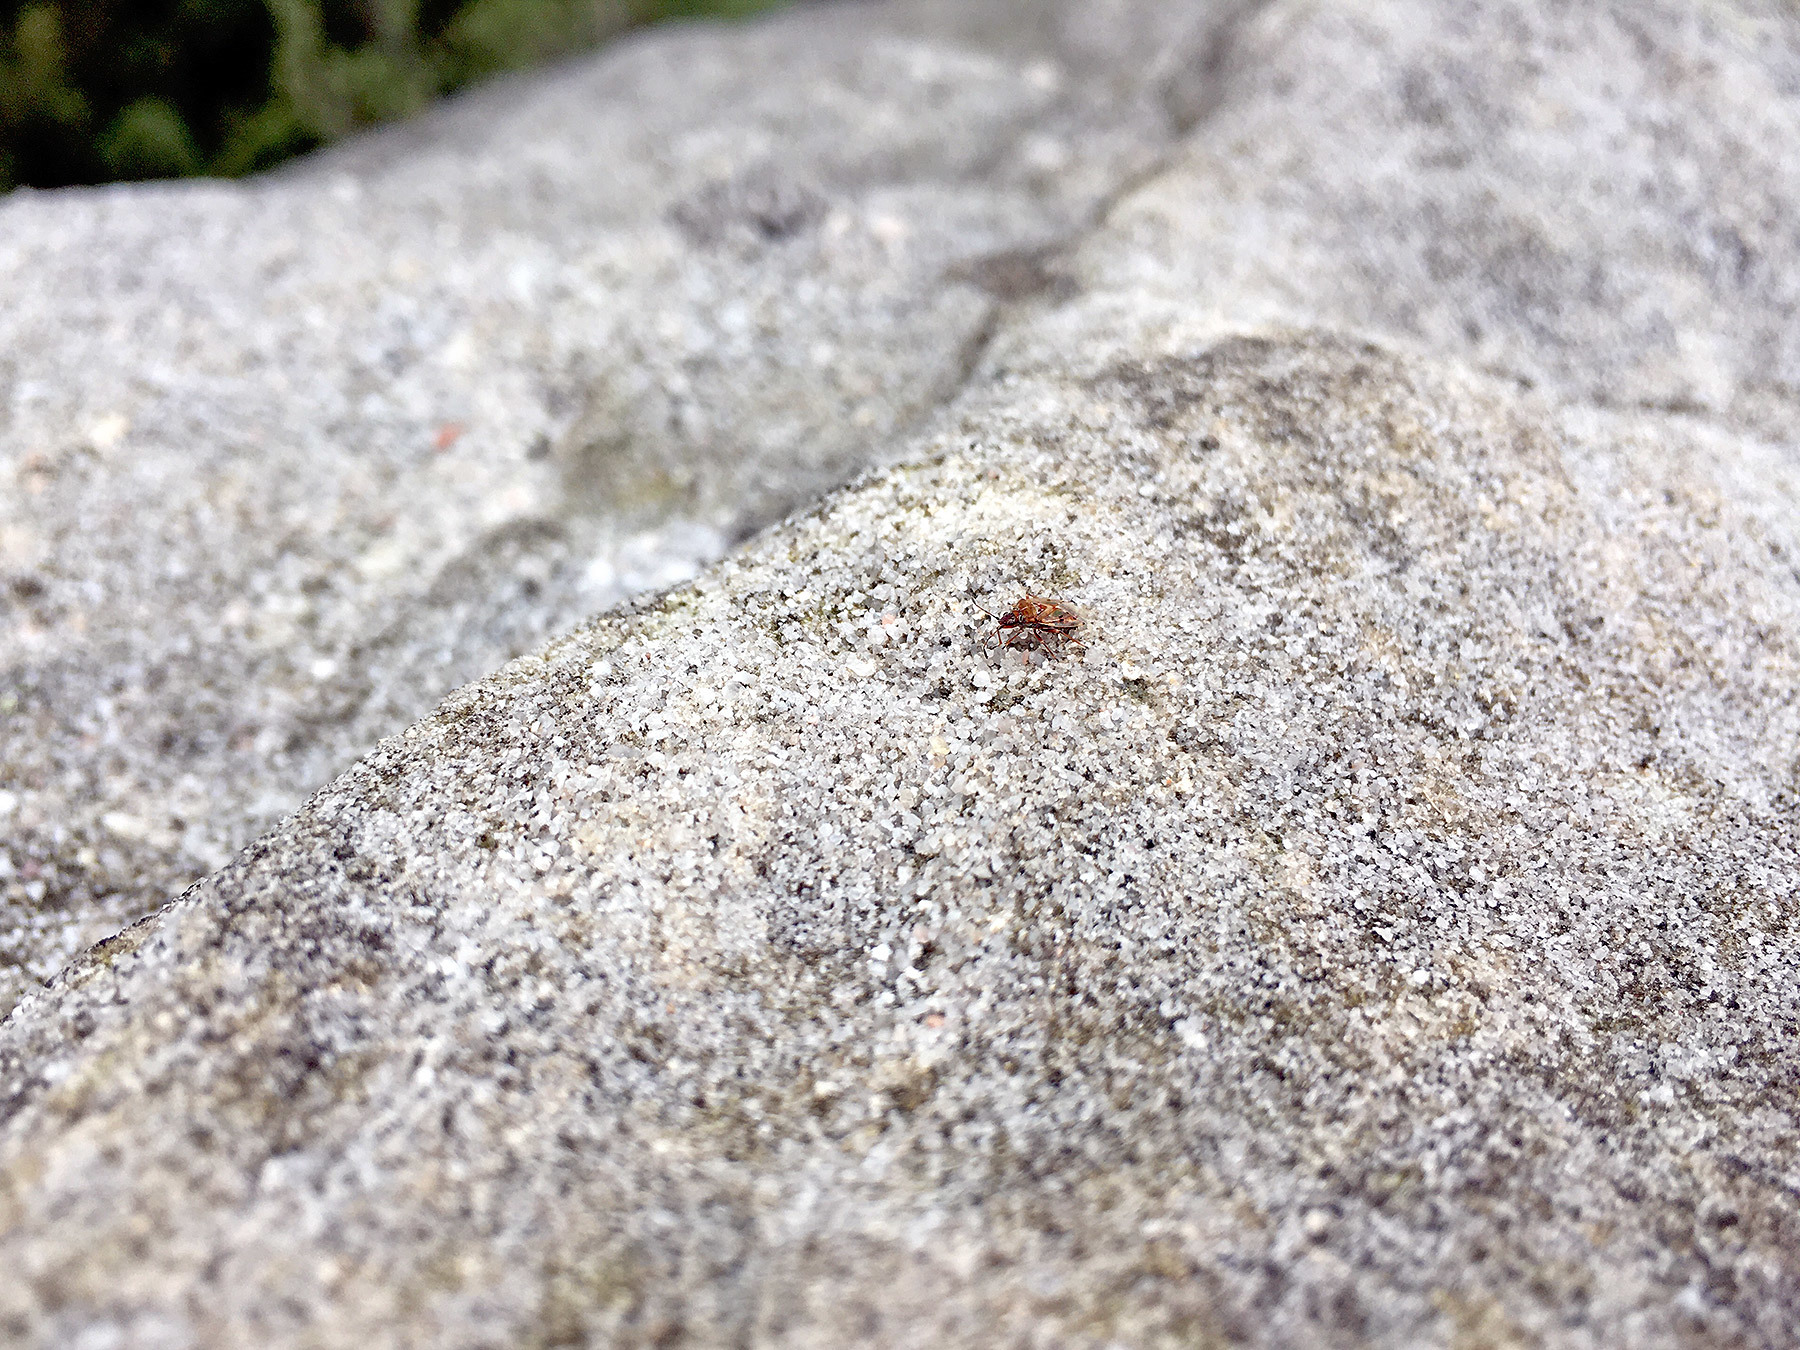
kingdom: Animalia
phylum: Arthropoda
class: Insecta
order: Hemiptera
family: Lygaeidae
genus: Kleidocerys
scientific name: Kleidocerys resedae
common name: Birch catkin bug
